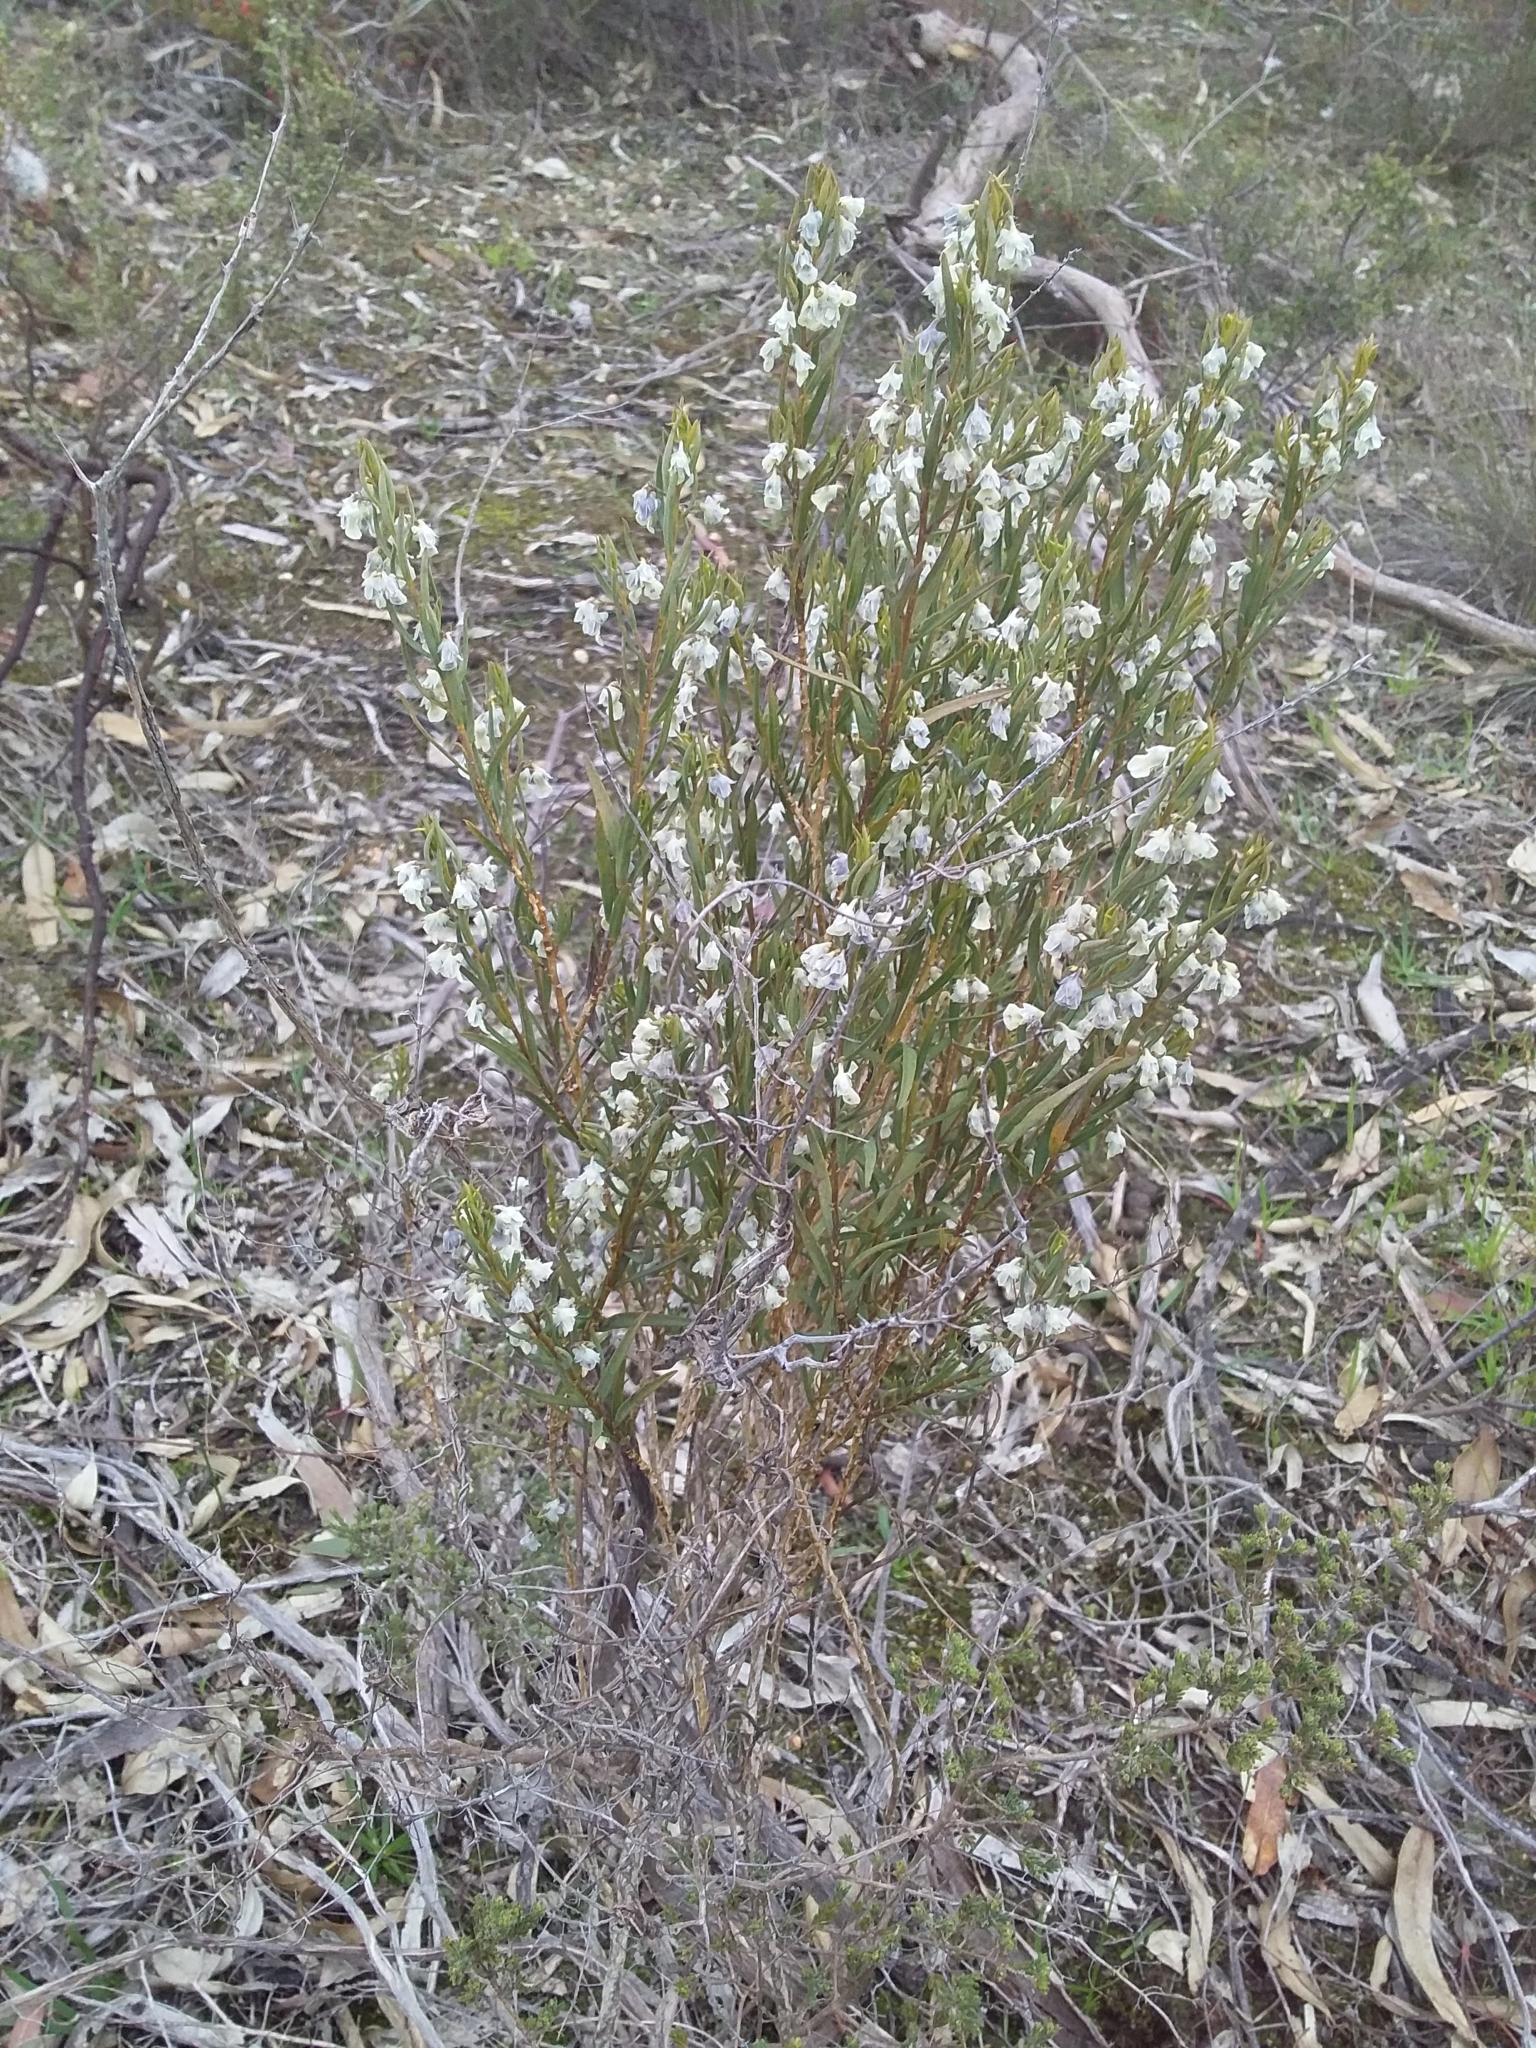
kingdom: Plantae
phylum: Tracheophyta
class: Magnoliopsida
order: Malpighiales
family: Violaceae
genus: Pigea
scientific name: Pigea floribunda
